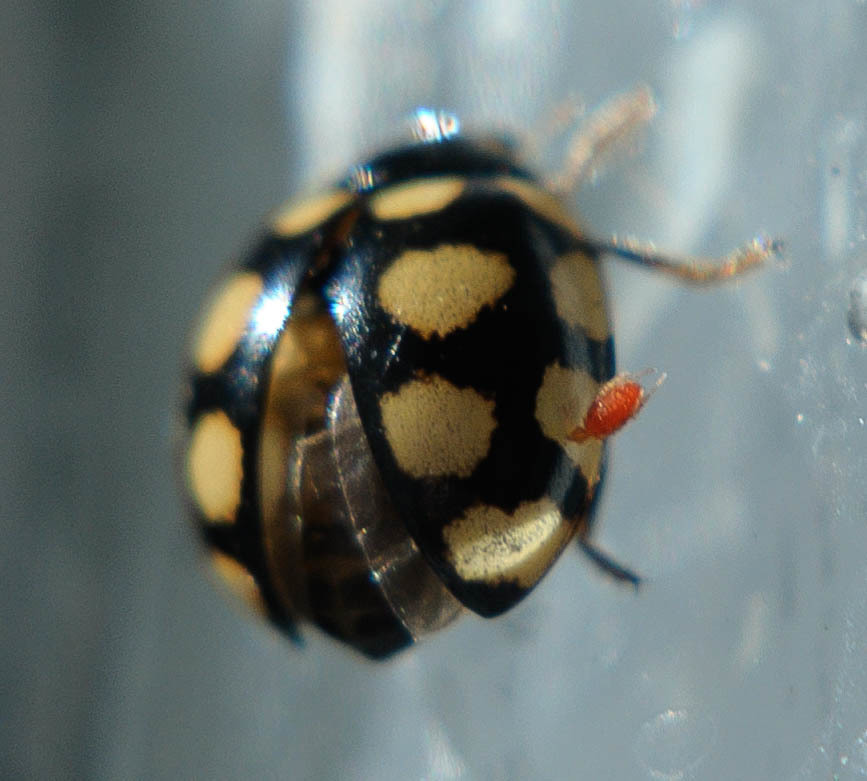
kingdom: Animalia
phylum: Arthropoda
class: Insecta
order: Coleoptera
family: Coccinellidae
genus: Coccinula
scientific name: Coccinula quatuordecimpustulata
